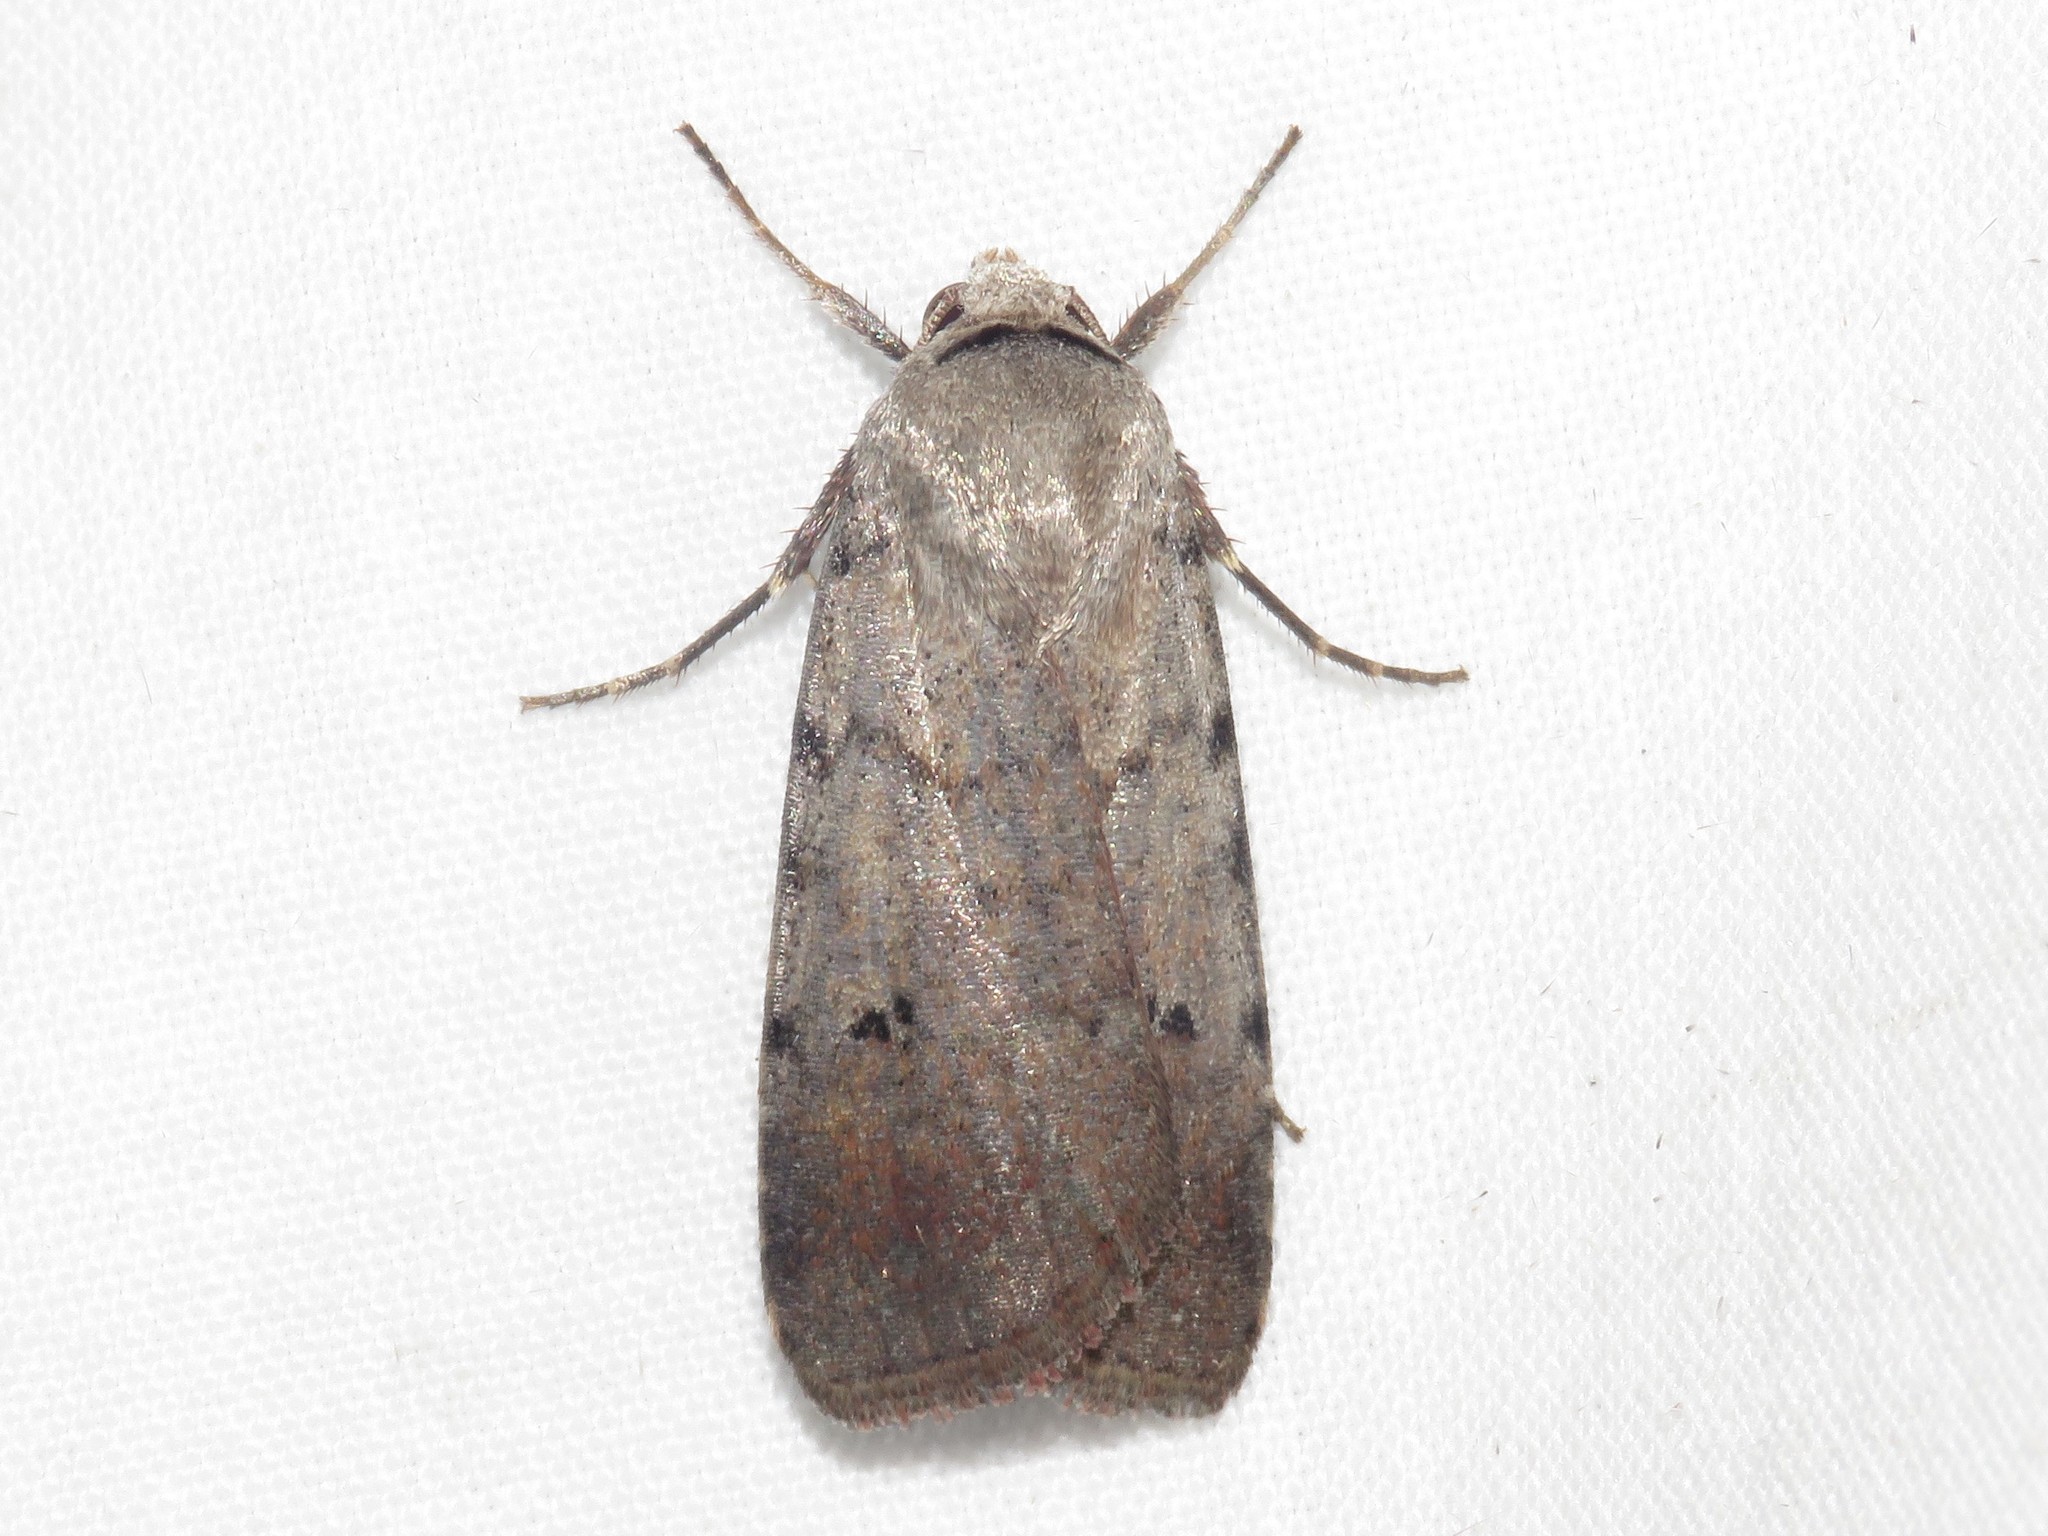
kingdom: Animalia
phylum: Arthropoda
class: Insecta
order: Lepidoptera
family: Noctuidae
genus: Anicla
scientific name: Anicla illapsa
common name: Snowy dart
